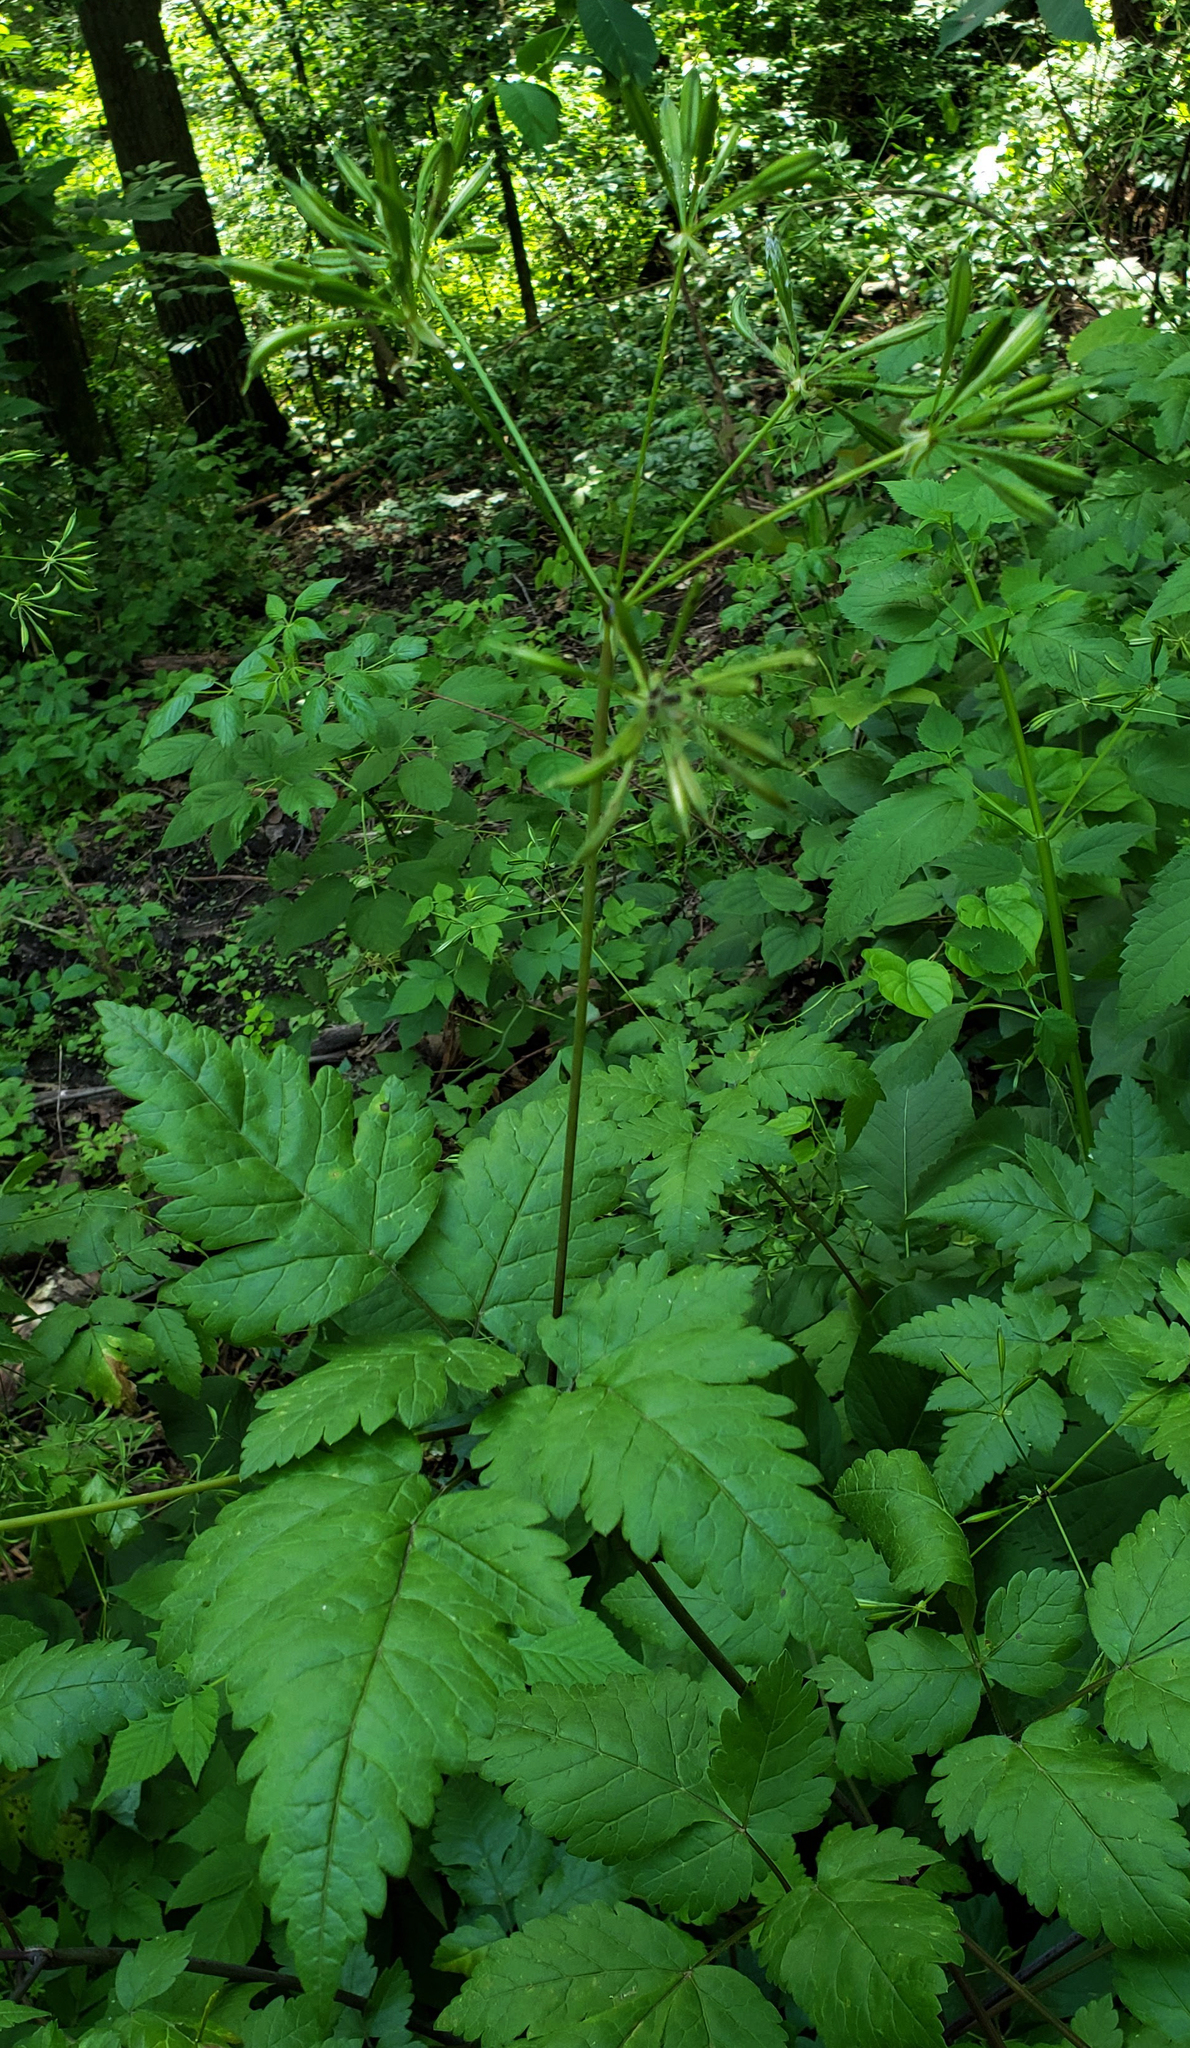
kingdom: Plantae
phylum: Tracheophyta
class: Magnoliopsida
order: Apiales
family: Apiaceae
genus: Osmorhiza
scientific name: Osmorhiza longistylis
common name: Smooth sweet cicely
